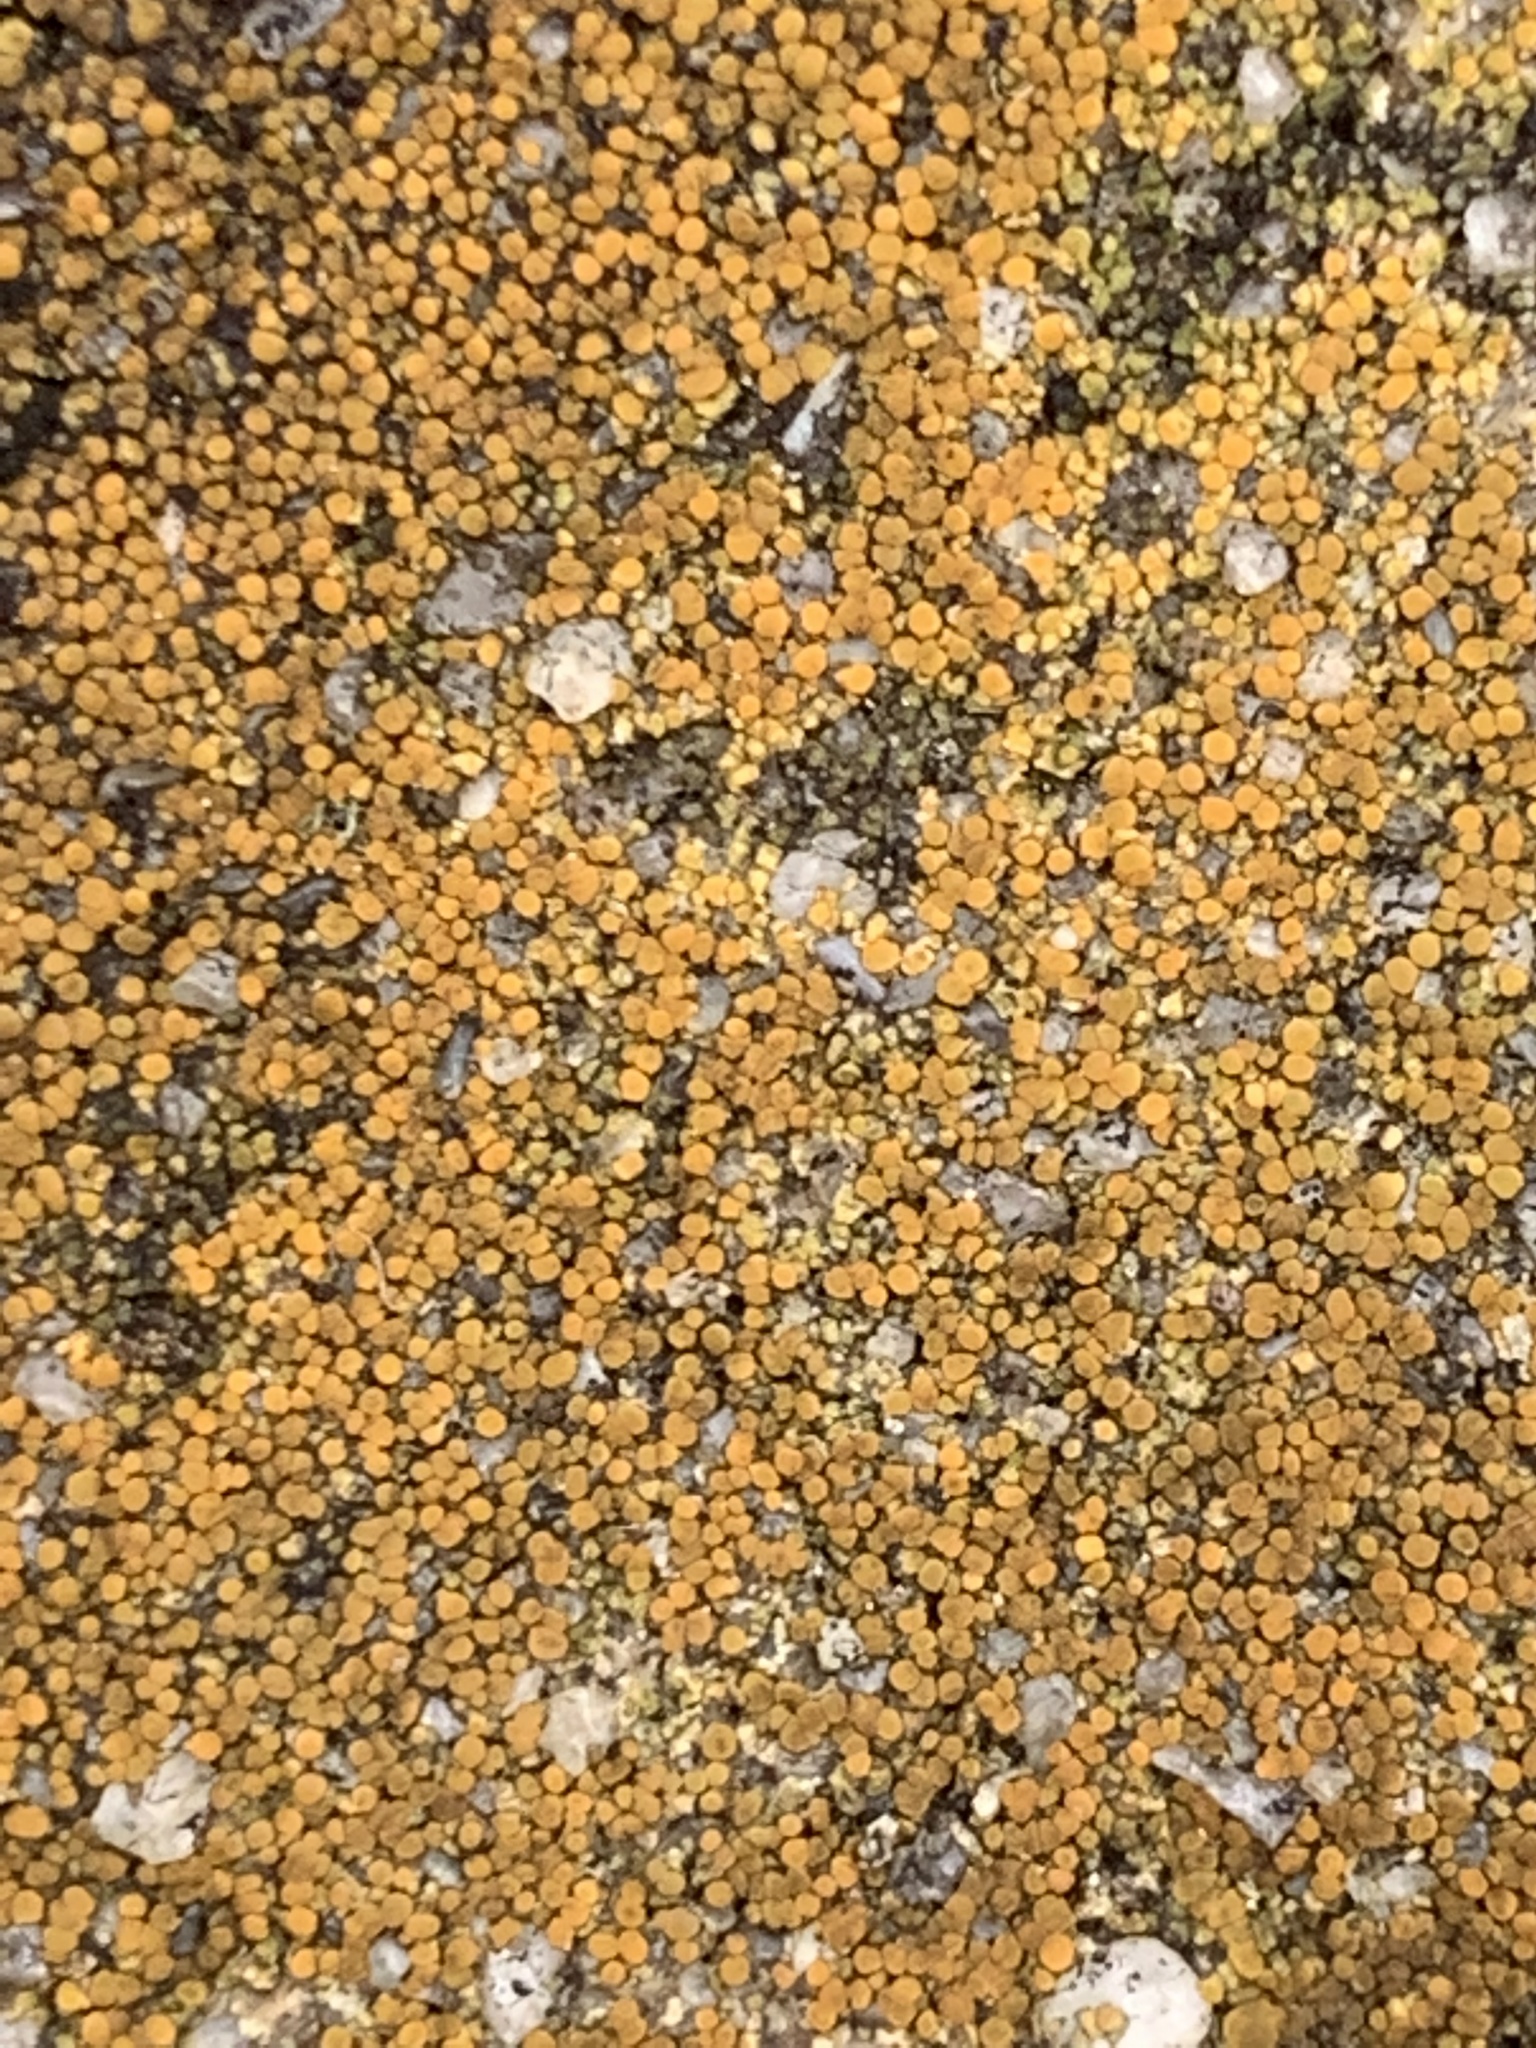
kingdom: Fungi
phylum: Ascomycota
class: Lecanoromycetes
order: Teloschistales
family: Teloschistaceae
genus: Xanthocarpia
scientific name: Xanthocarpia feracissima
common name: Sidewalk firedot
